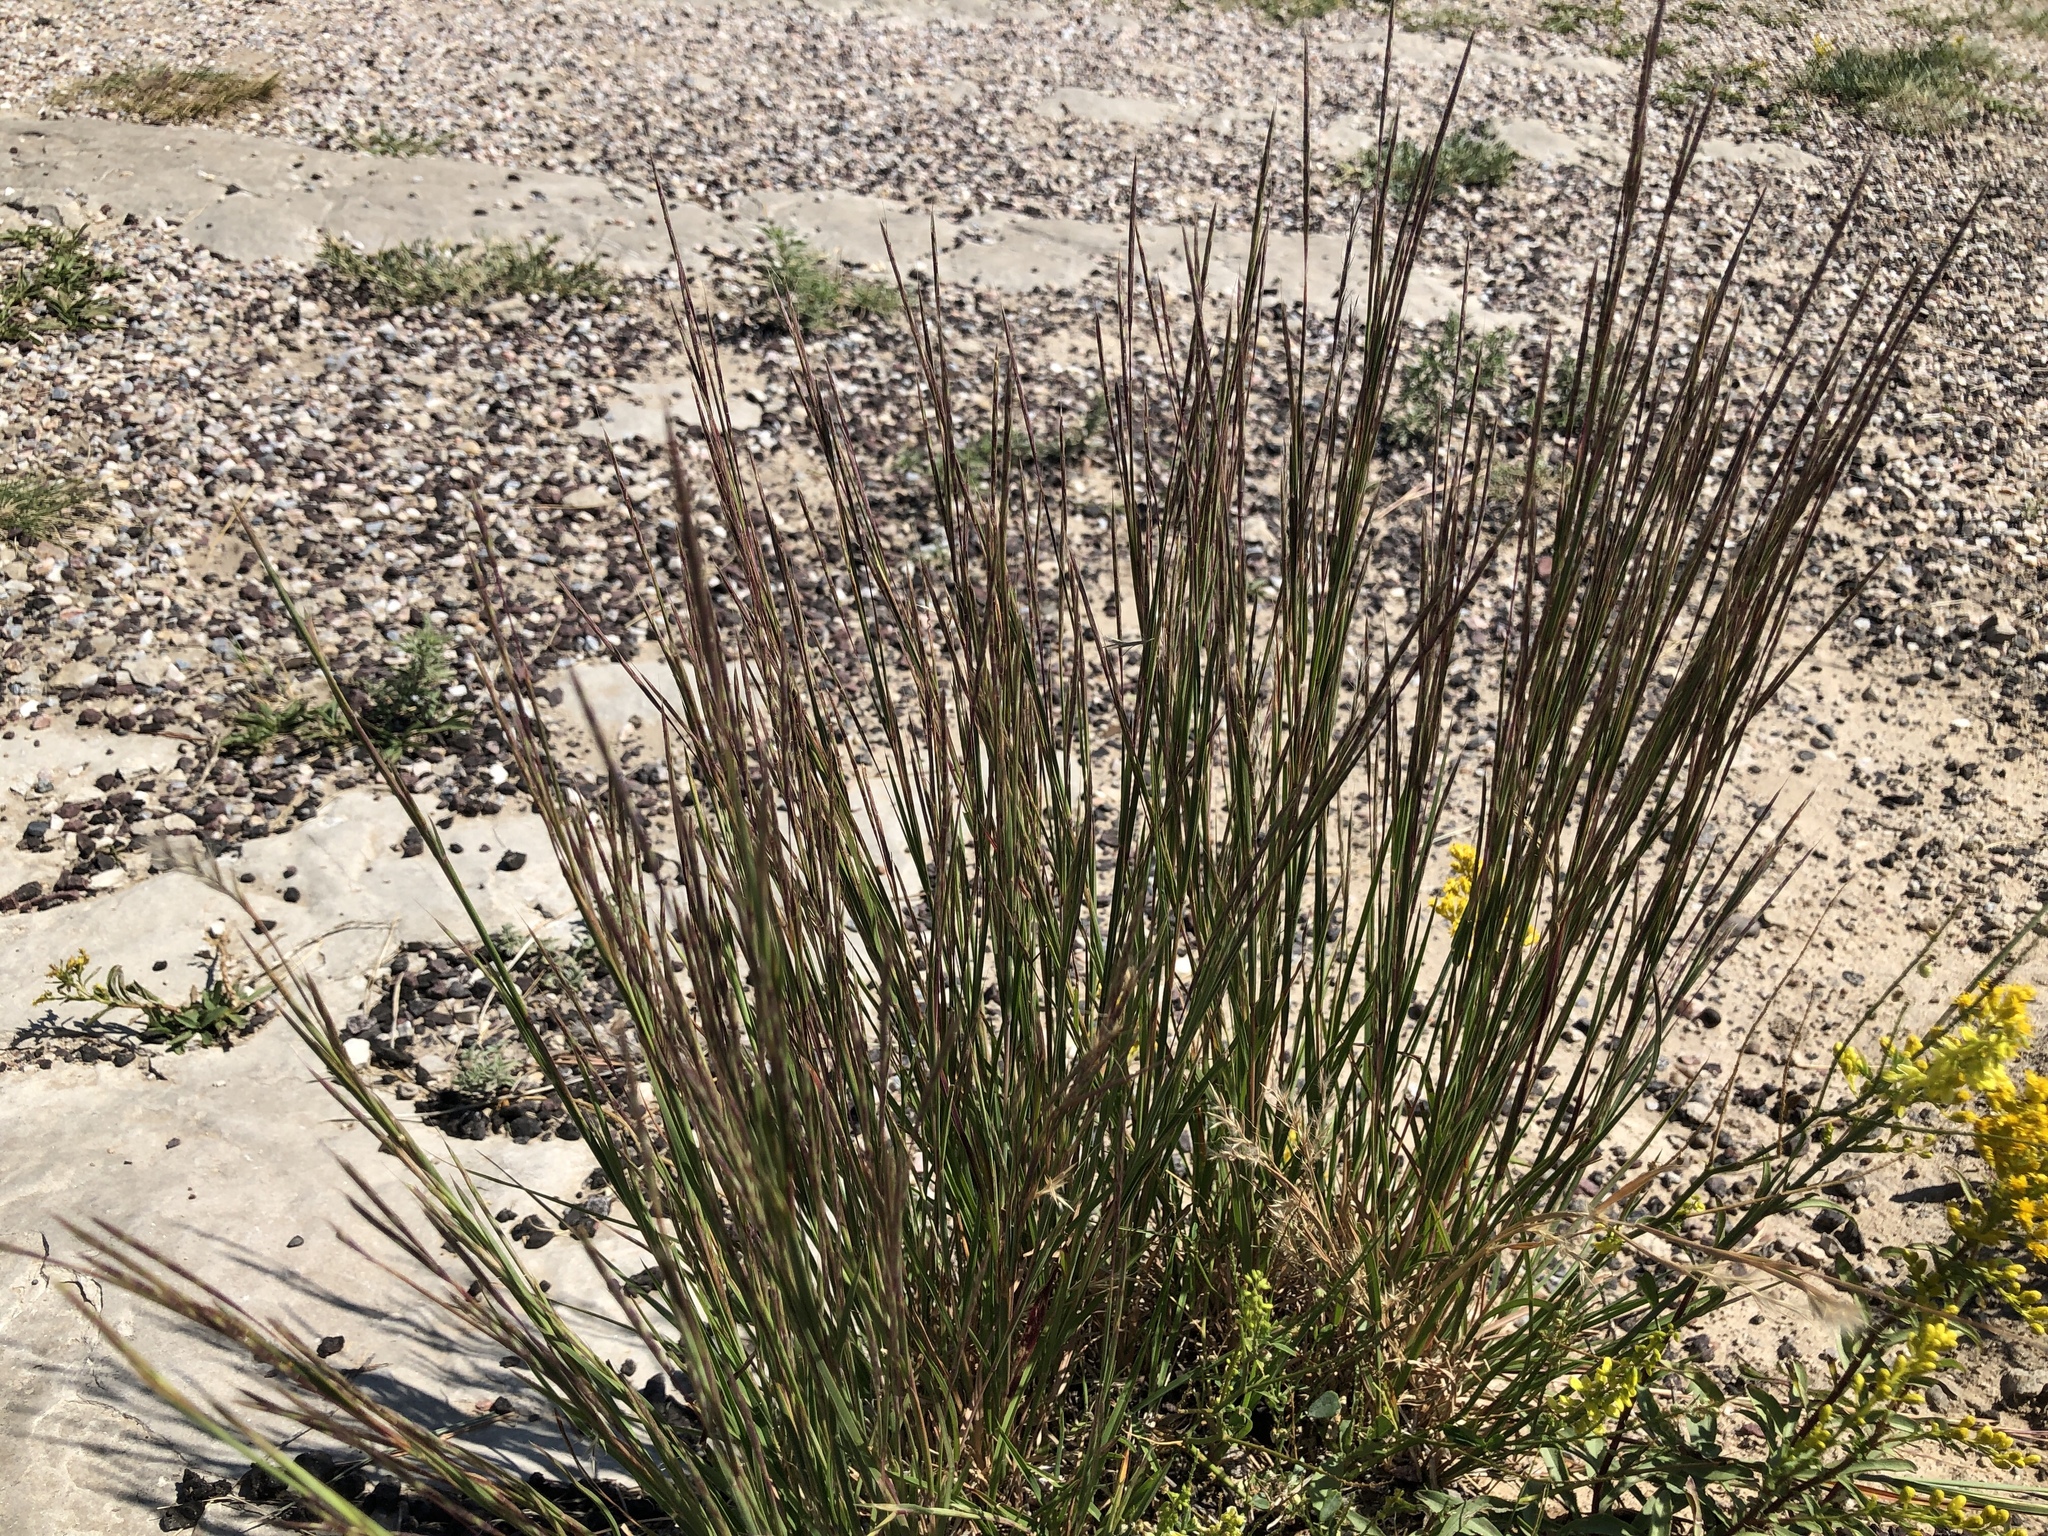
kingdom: Plantae
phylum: Tracheophyta
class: Liliopsida
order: Poales
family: Poaceae
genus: Schizachyrium
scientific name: Schizachyrium scoparium
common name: Little bluestem
